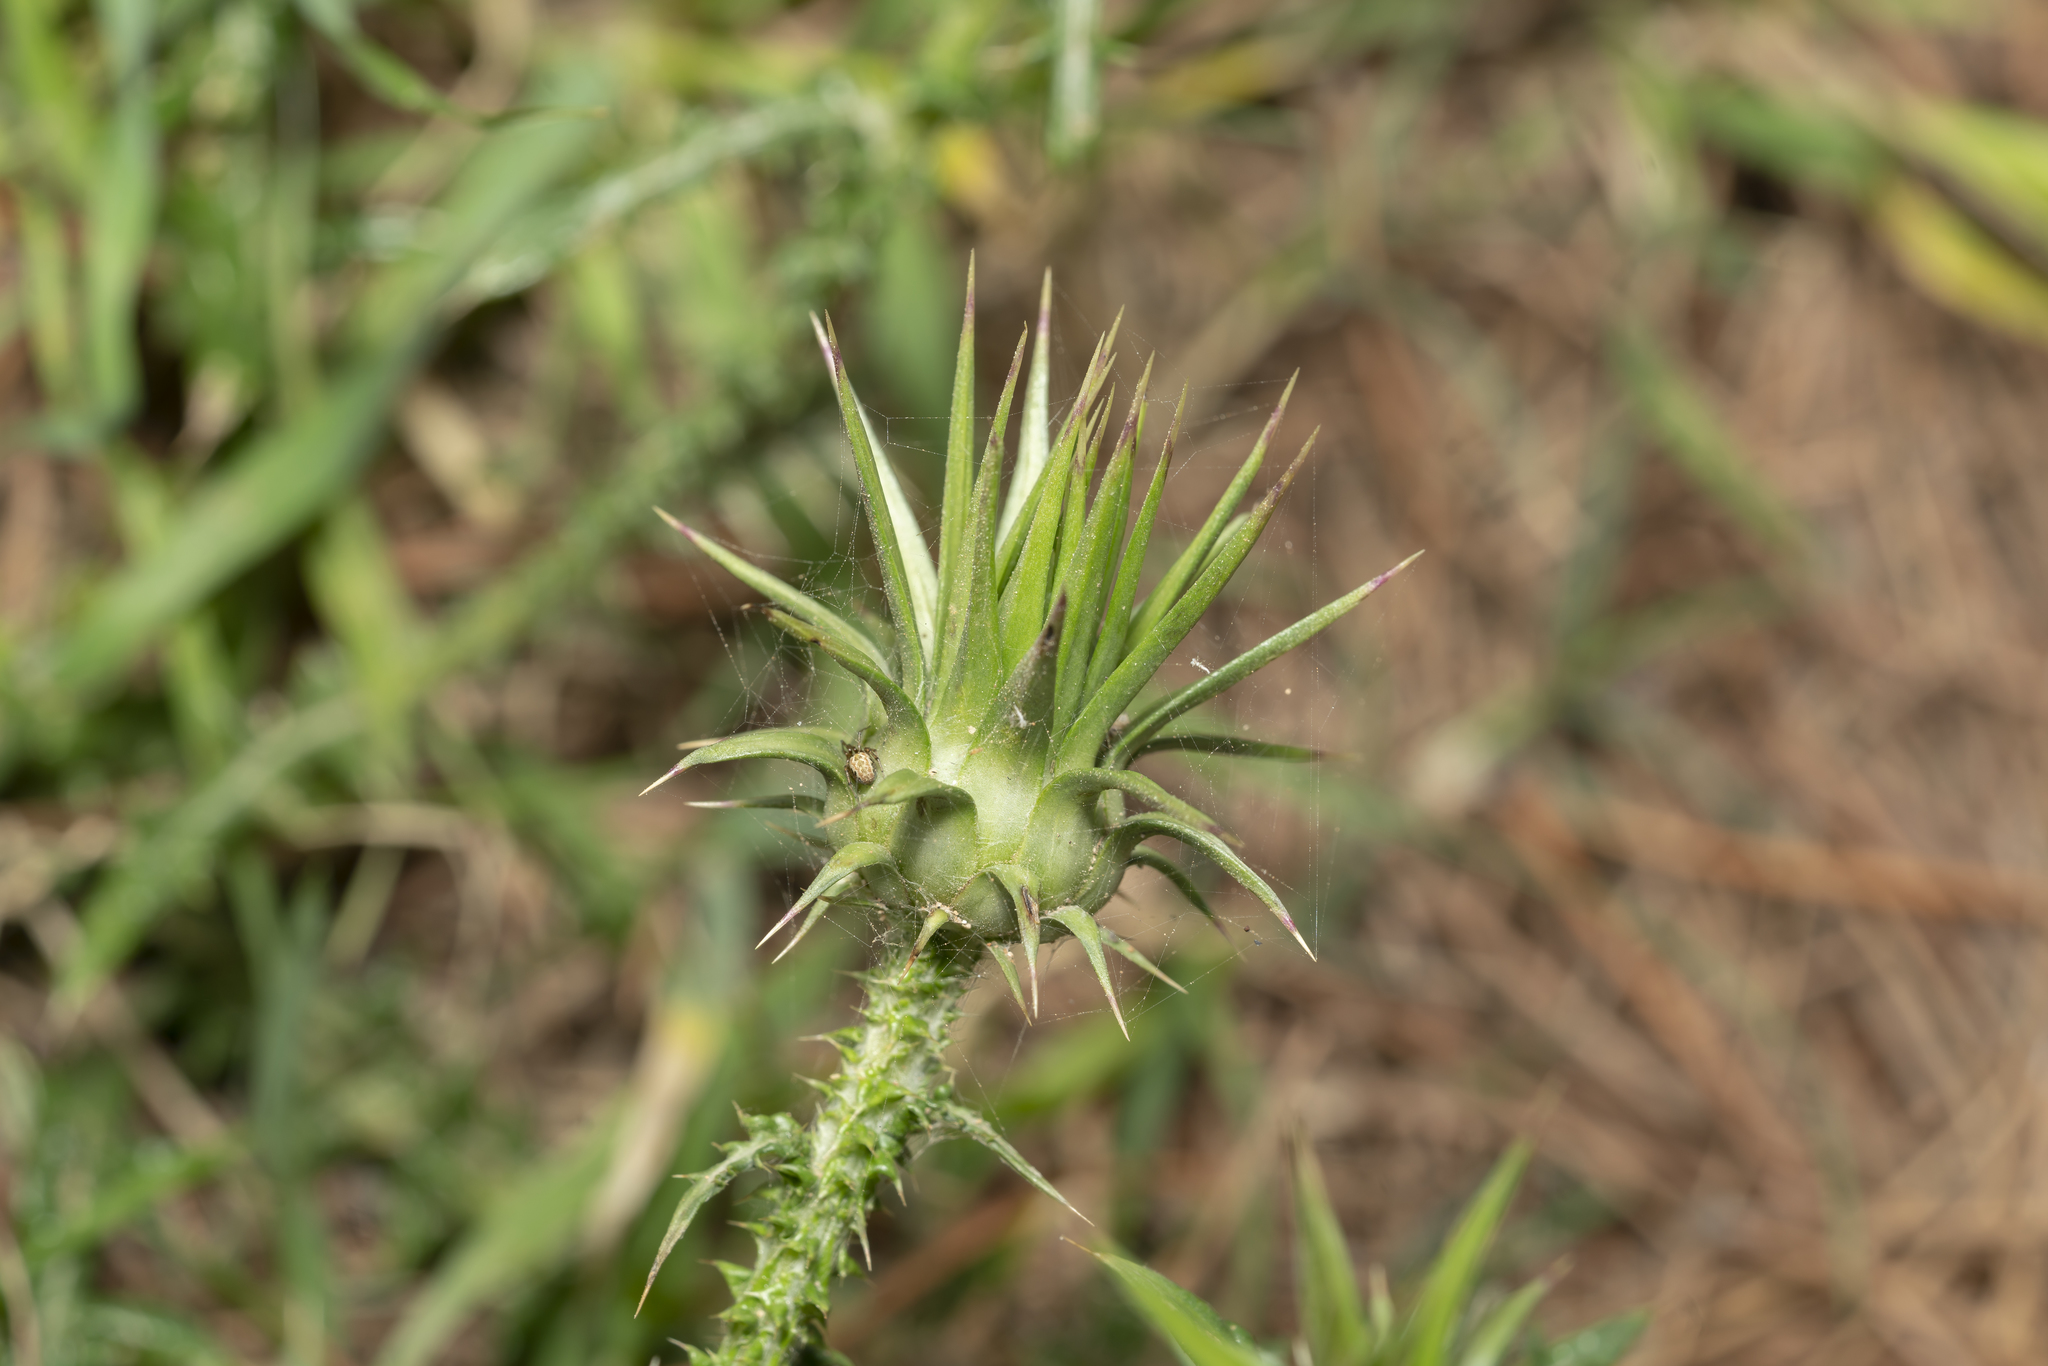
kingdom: Plantae
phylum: Tracheophyta
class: Magnoliopsida
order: Asterales
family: Asteraceae
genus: Onopordum
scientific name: Onopordum boissierianum
